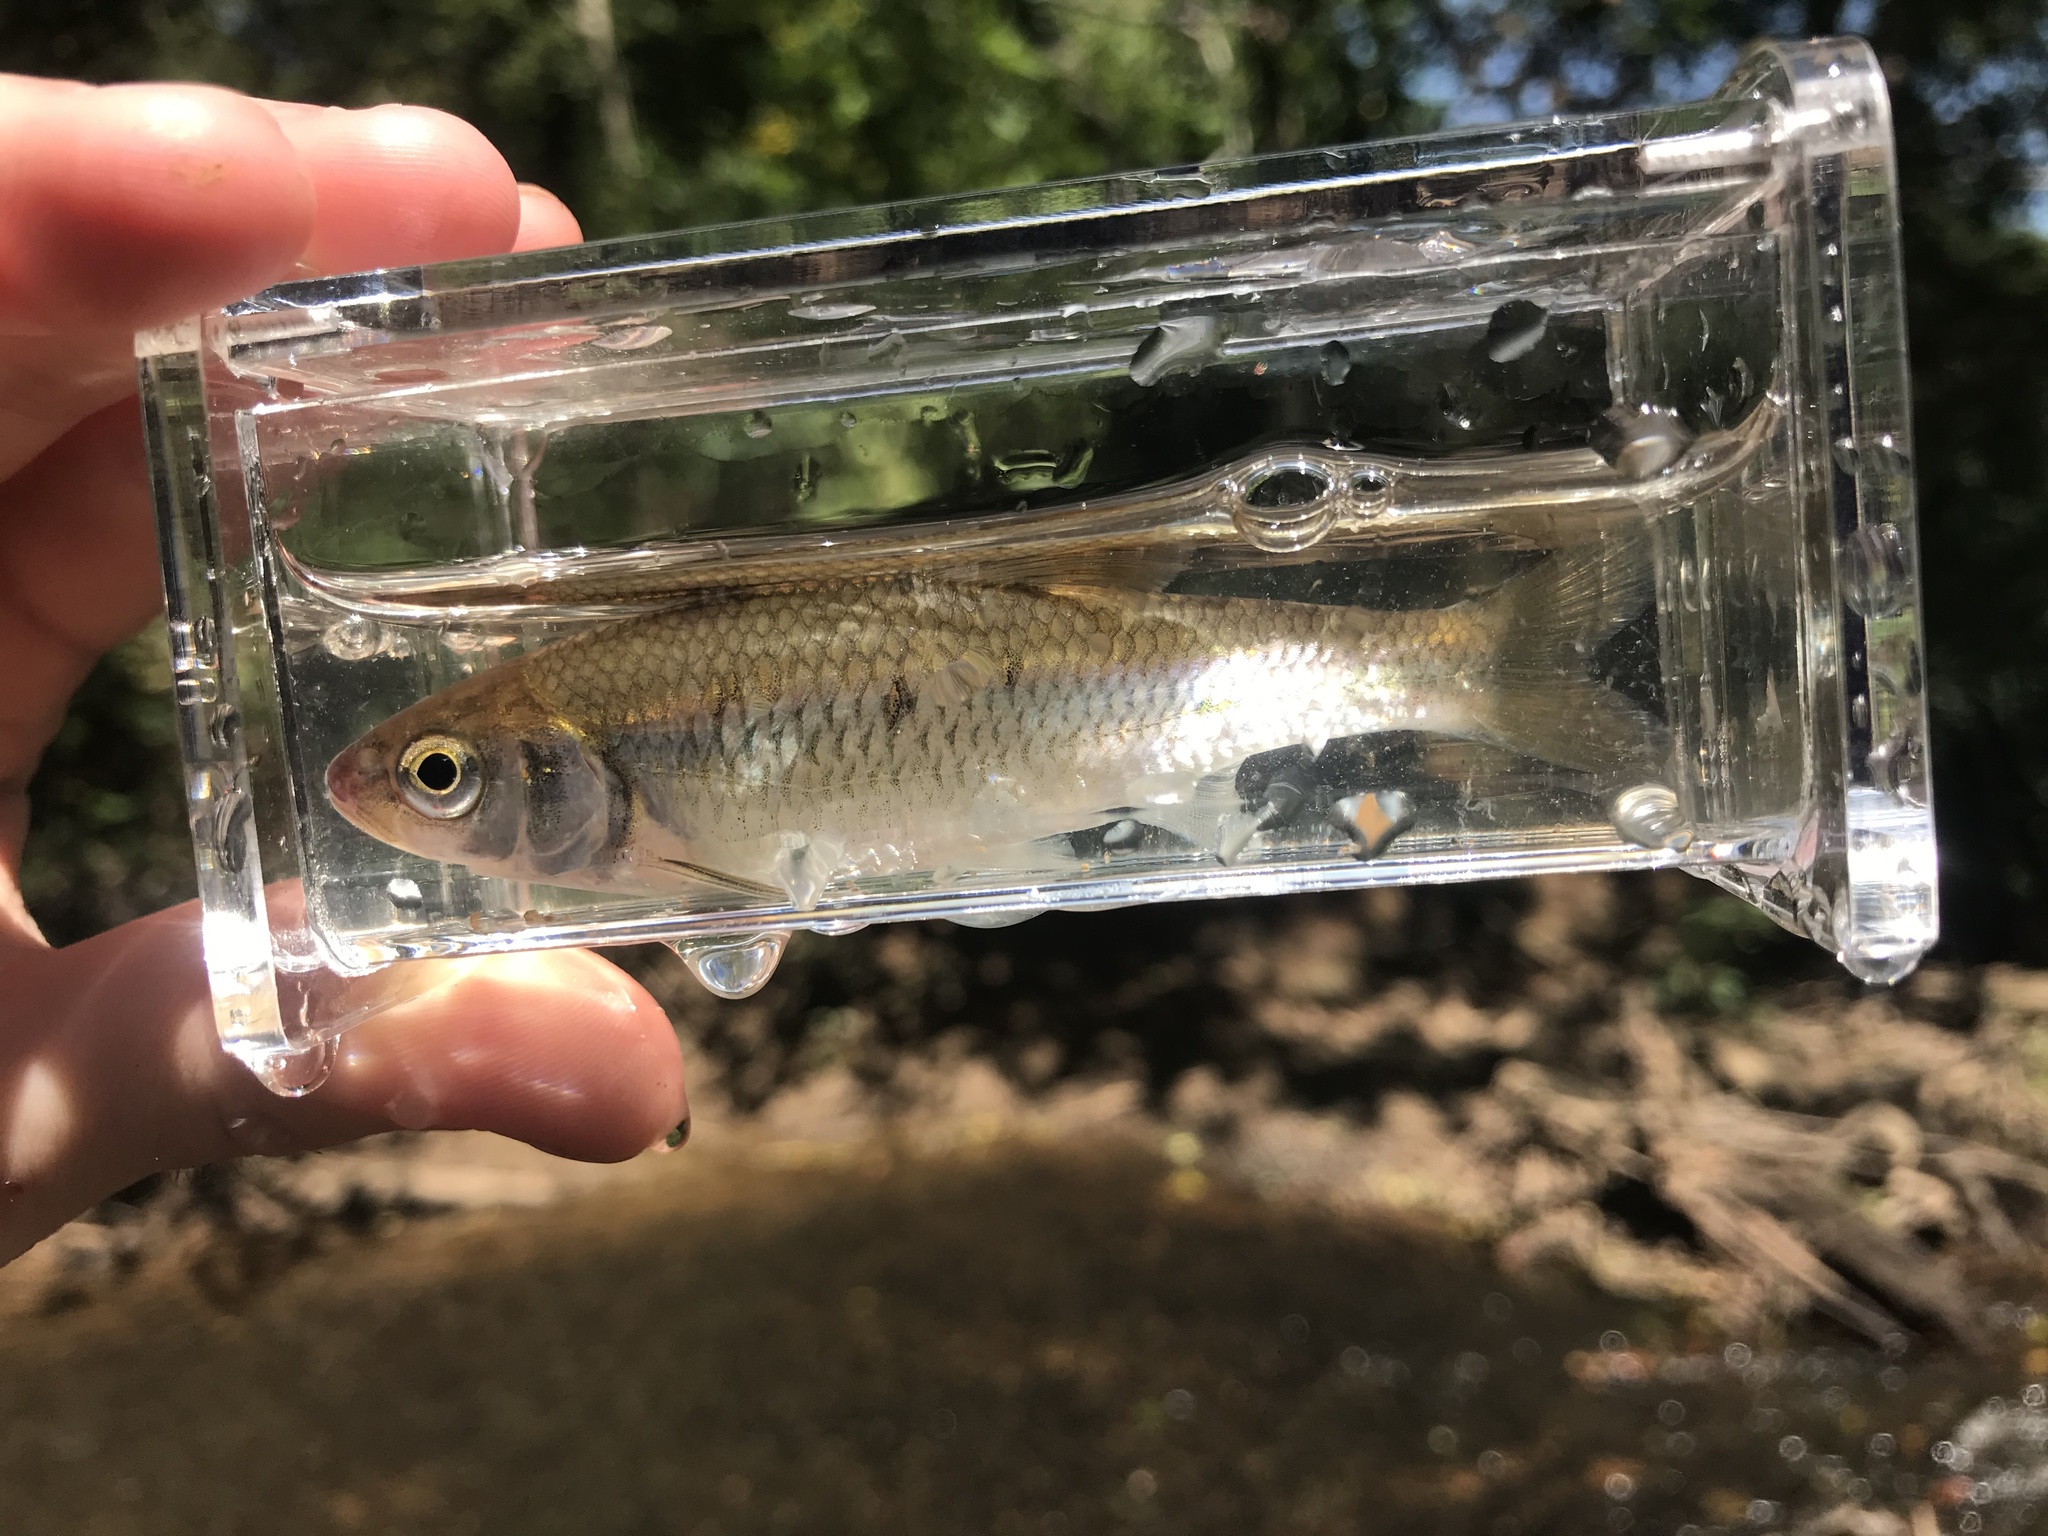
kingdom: Animalia
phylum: Chordata
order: Cypriniformes
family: Cyprinidae
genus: Luxilus
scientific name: Luxilus albeolus
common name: White shiner
